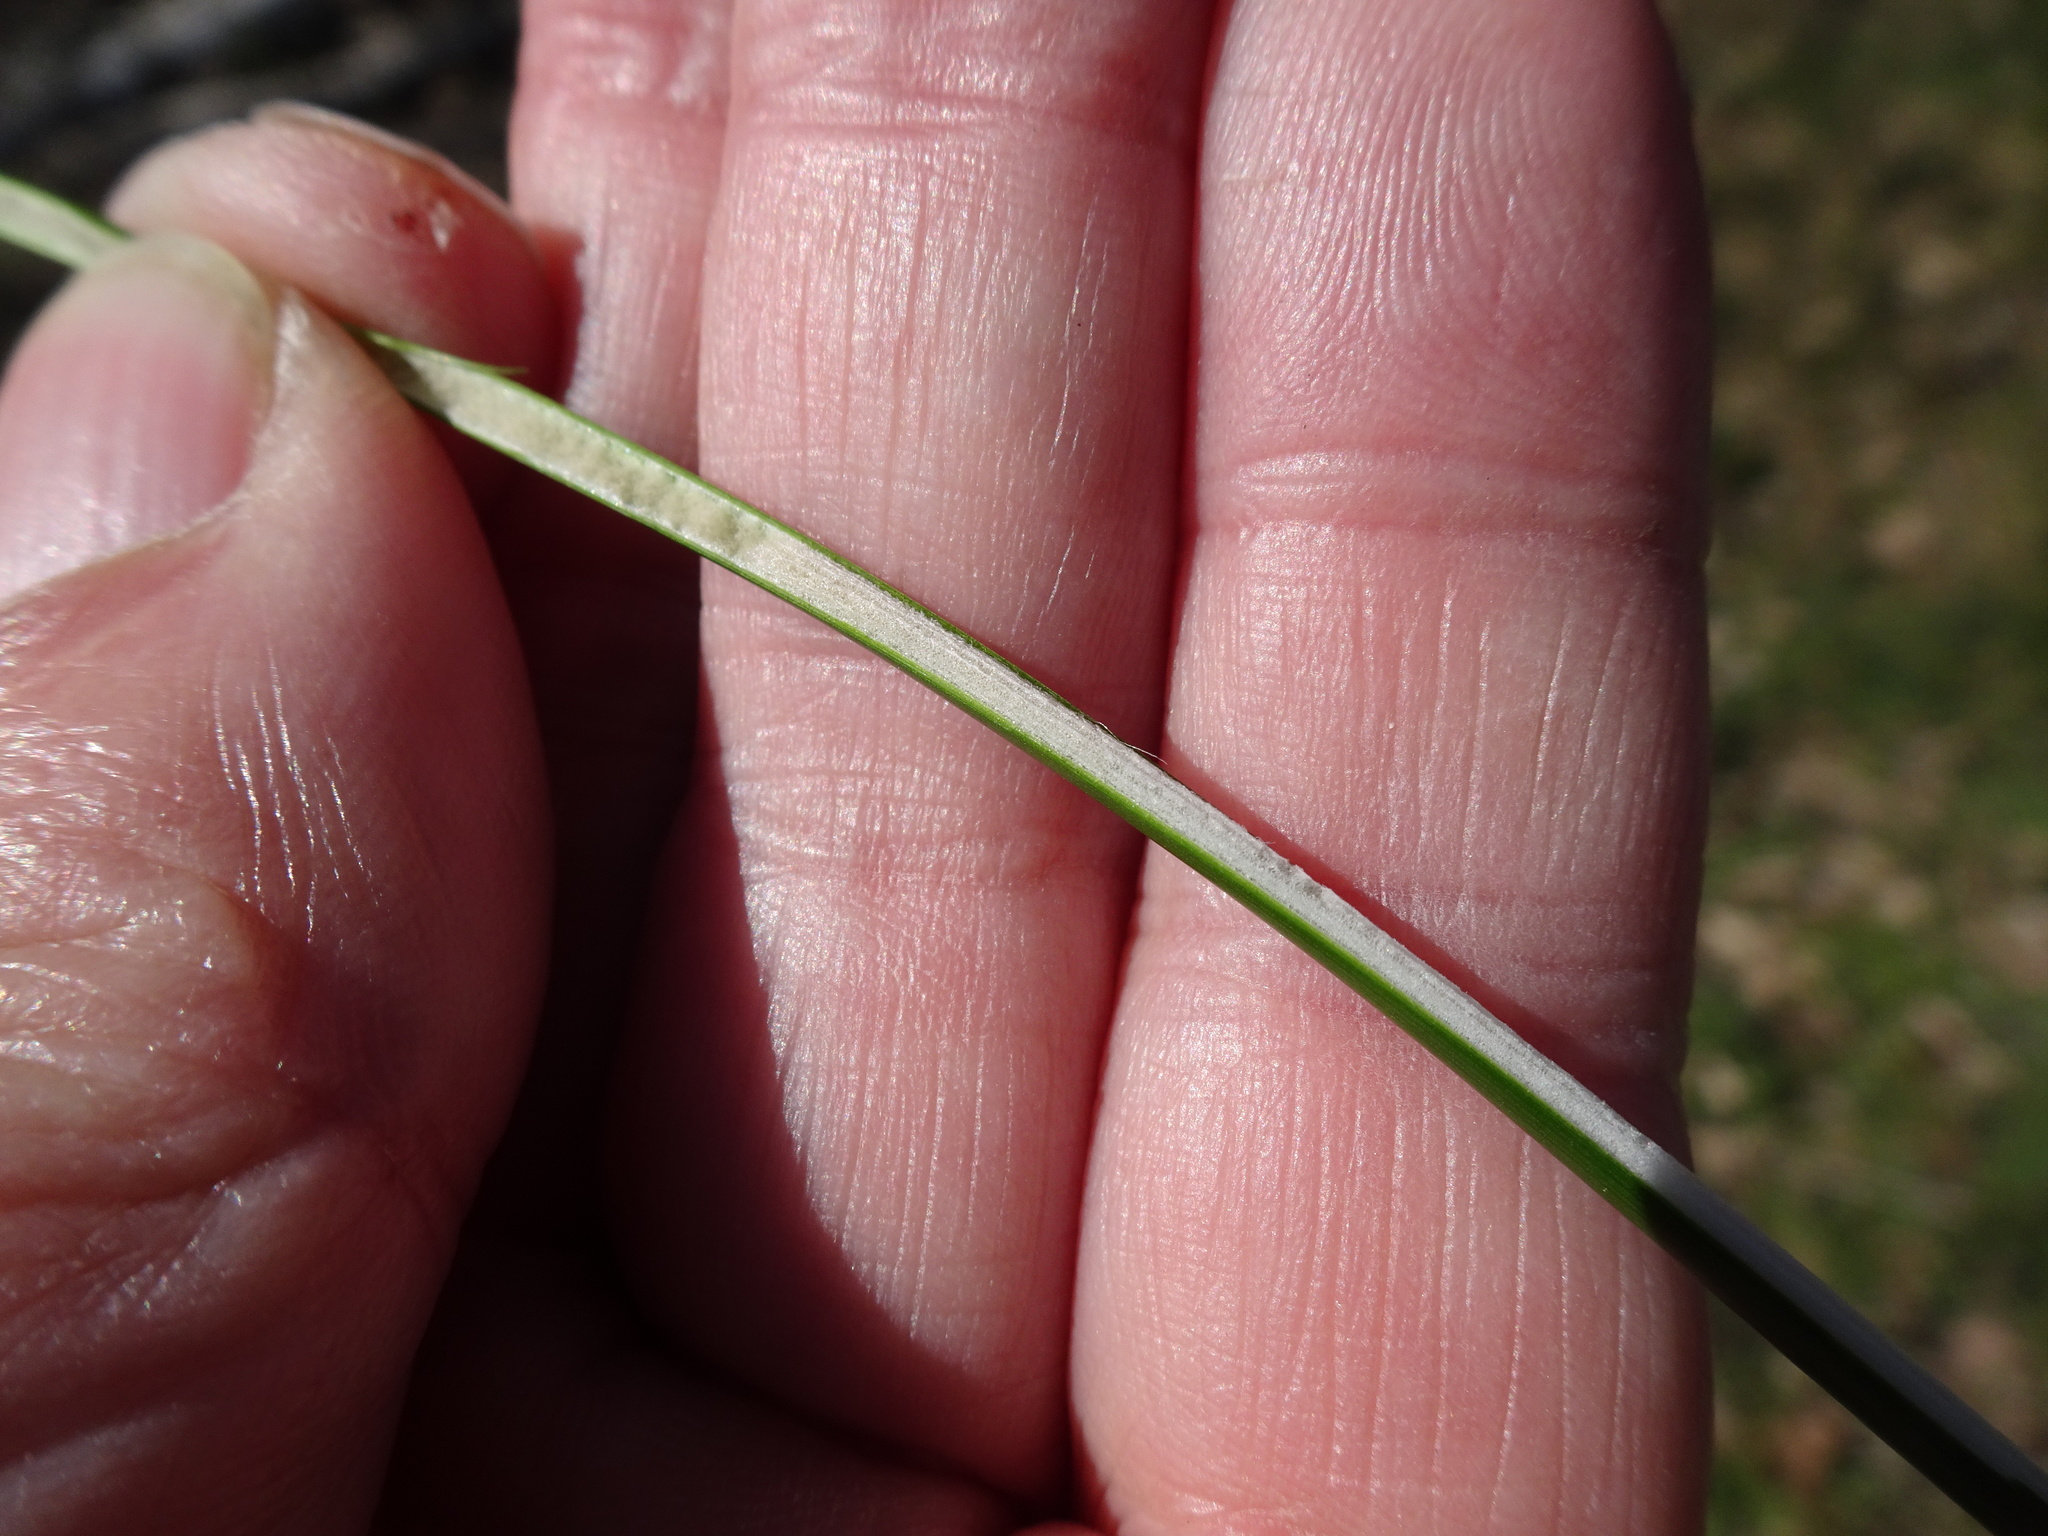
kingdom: Plantae
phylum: Tracheophyta
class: Liliopsida
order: Poales
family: Juncaceae
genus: Juncus
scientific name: Juncus effusus
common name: Soft rush
